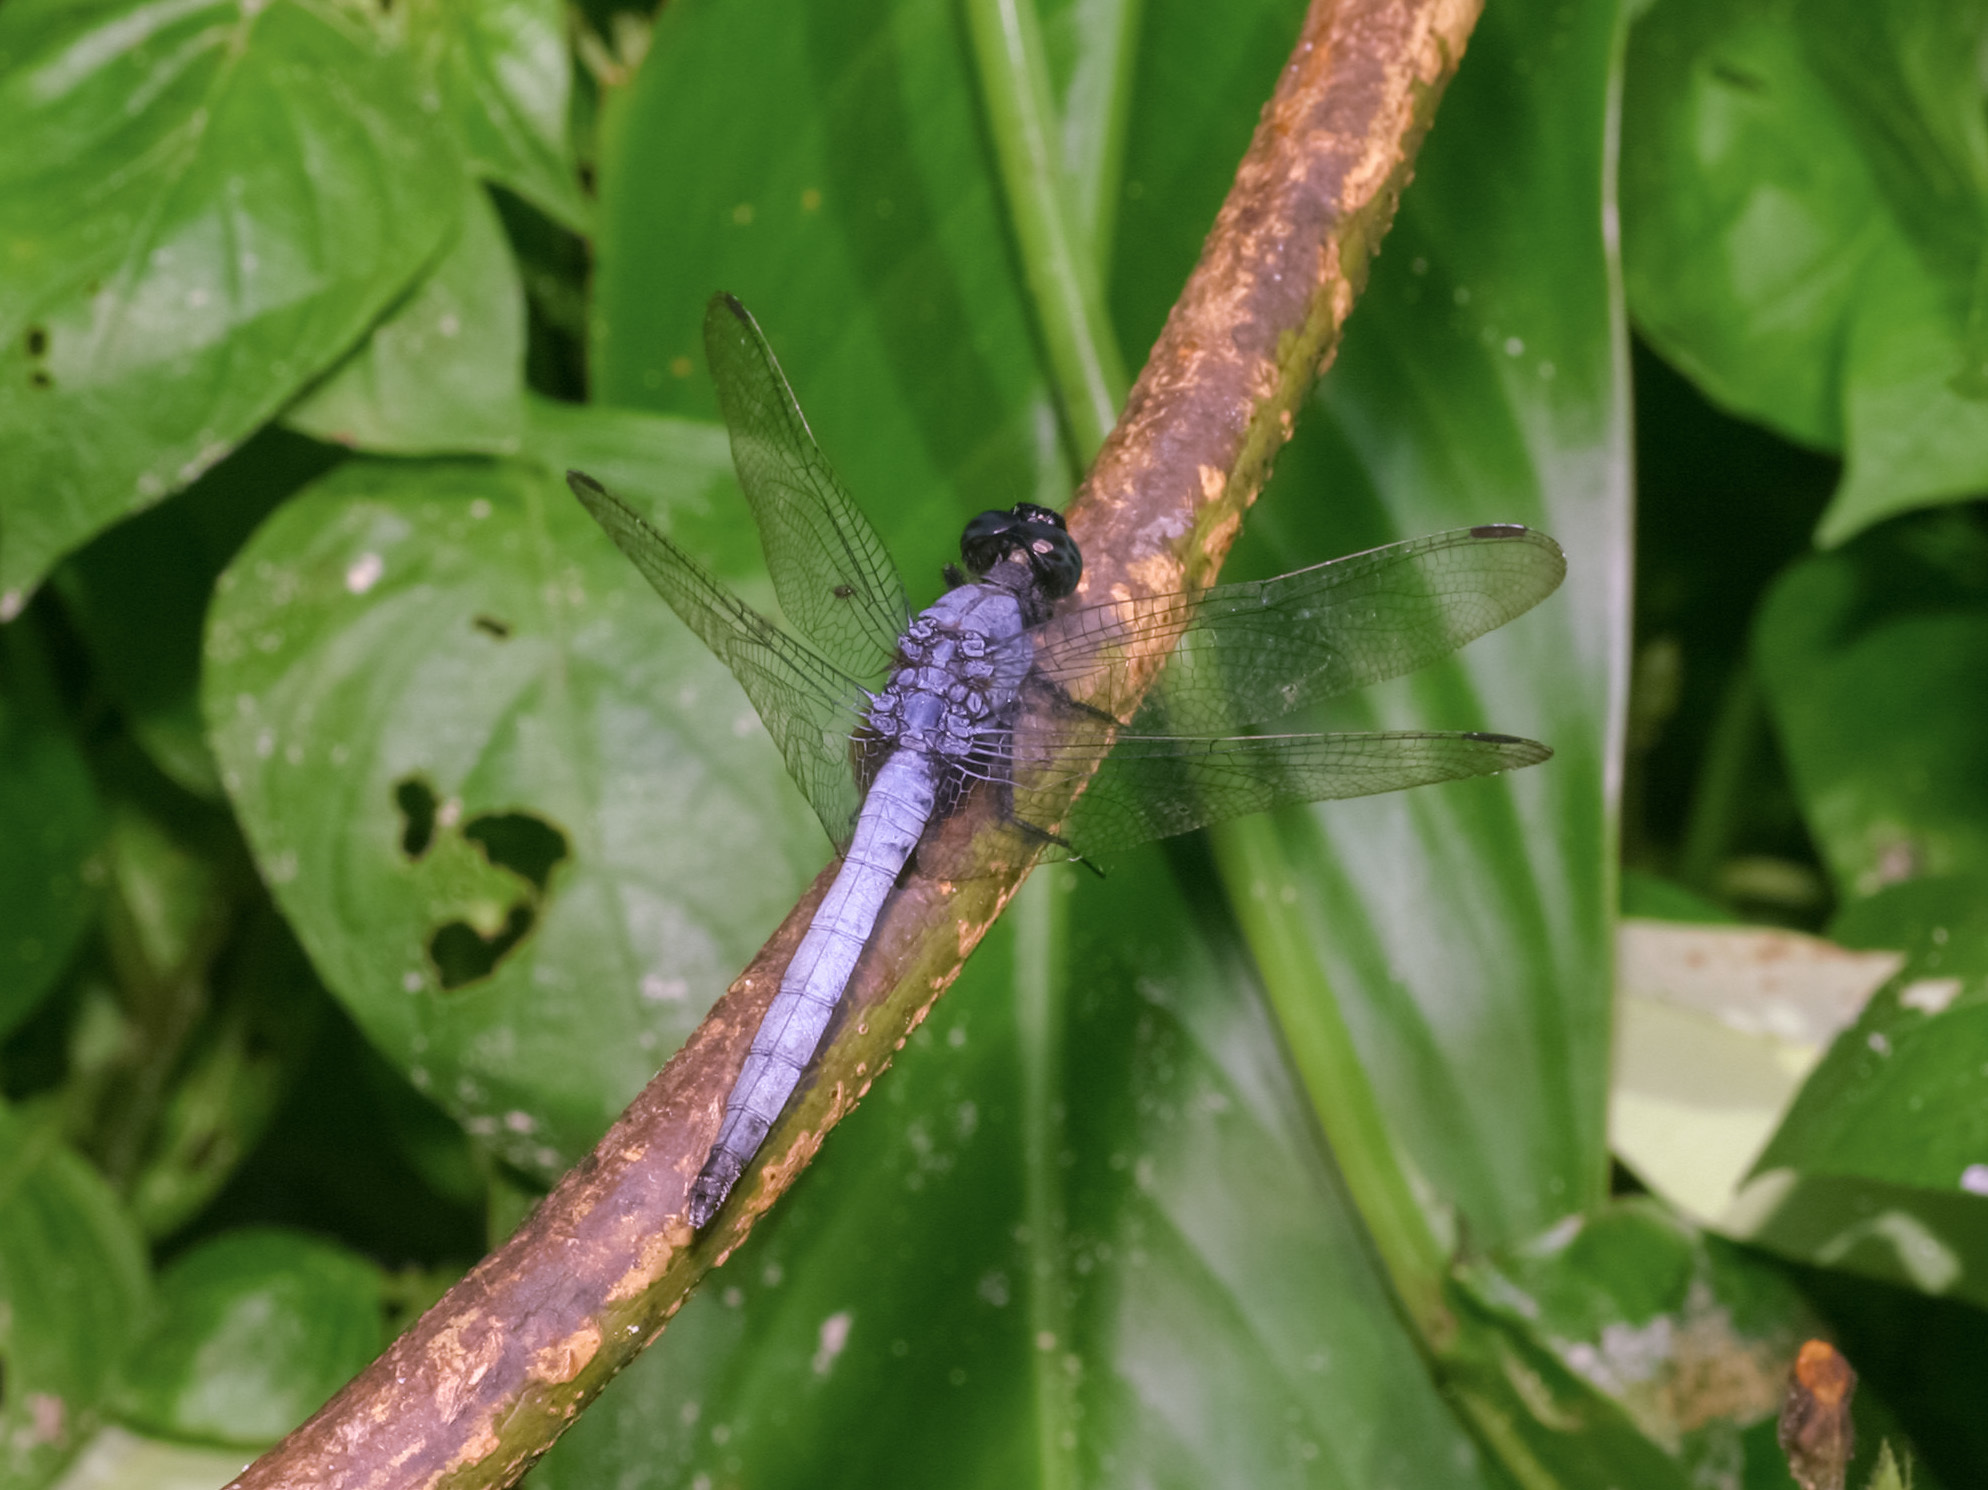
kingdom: Animalia
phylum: Arthropoda
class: Insecta
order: Odonata
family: Libellulidae
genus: Orthetrum
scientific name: Orthetrum glaucum
